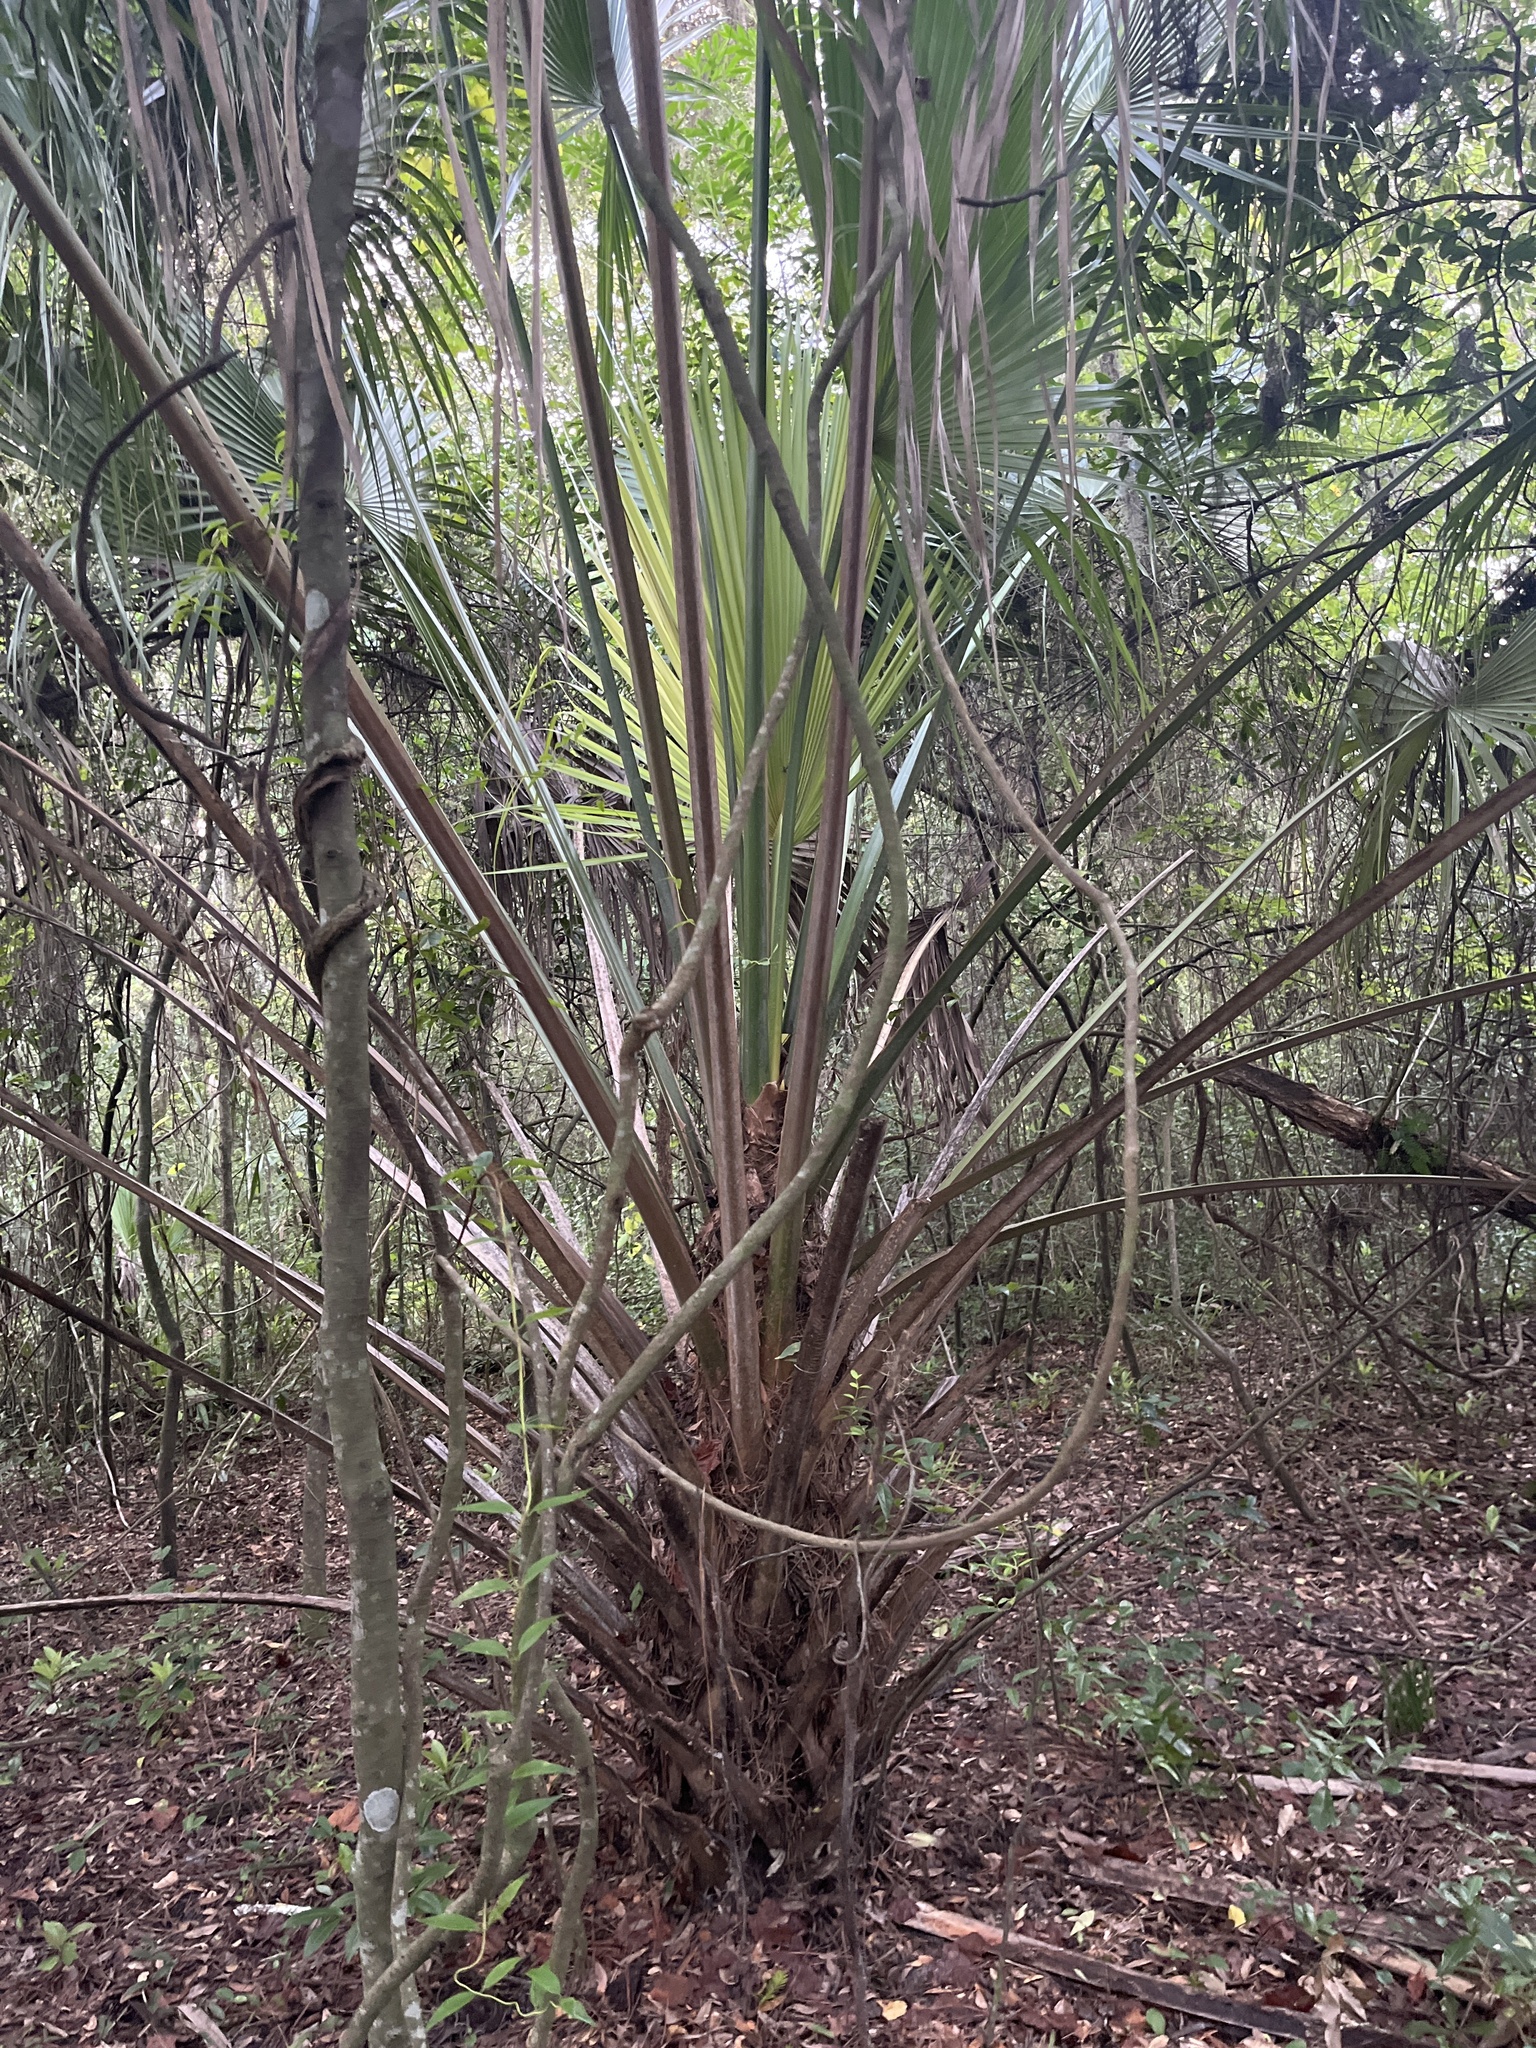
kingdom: Plantae
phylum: Tracheophyta
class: Liliopsida
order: Arecales
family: Arecaceae
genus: Sabal
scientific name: Sabal palmetto
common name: Blue palmetto
